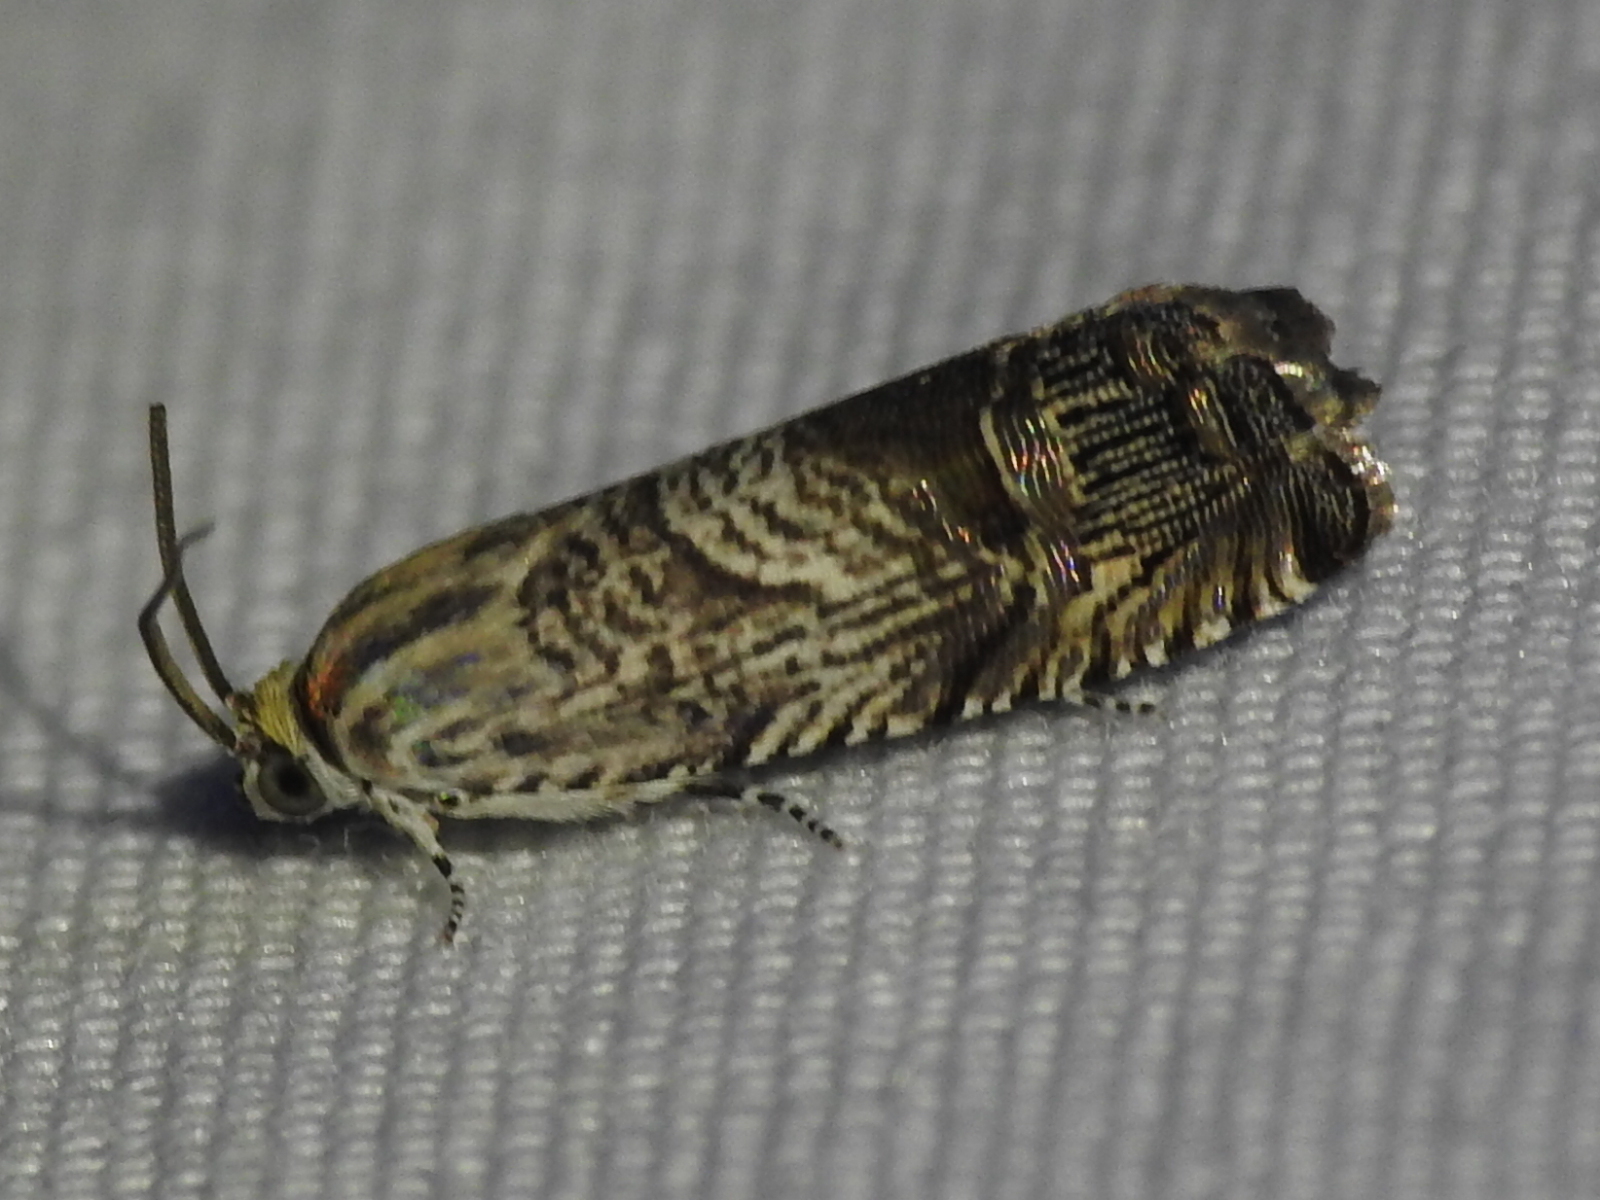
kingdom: Animalia
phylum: Arthropoda
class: Insecta
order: Lepidoptera
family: Tortricidae
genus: Ofatulena
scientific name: Ofatulena duodecemstriata
